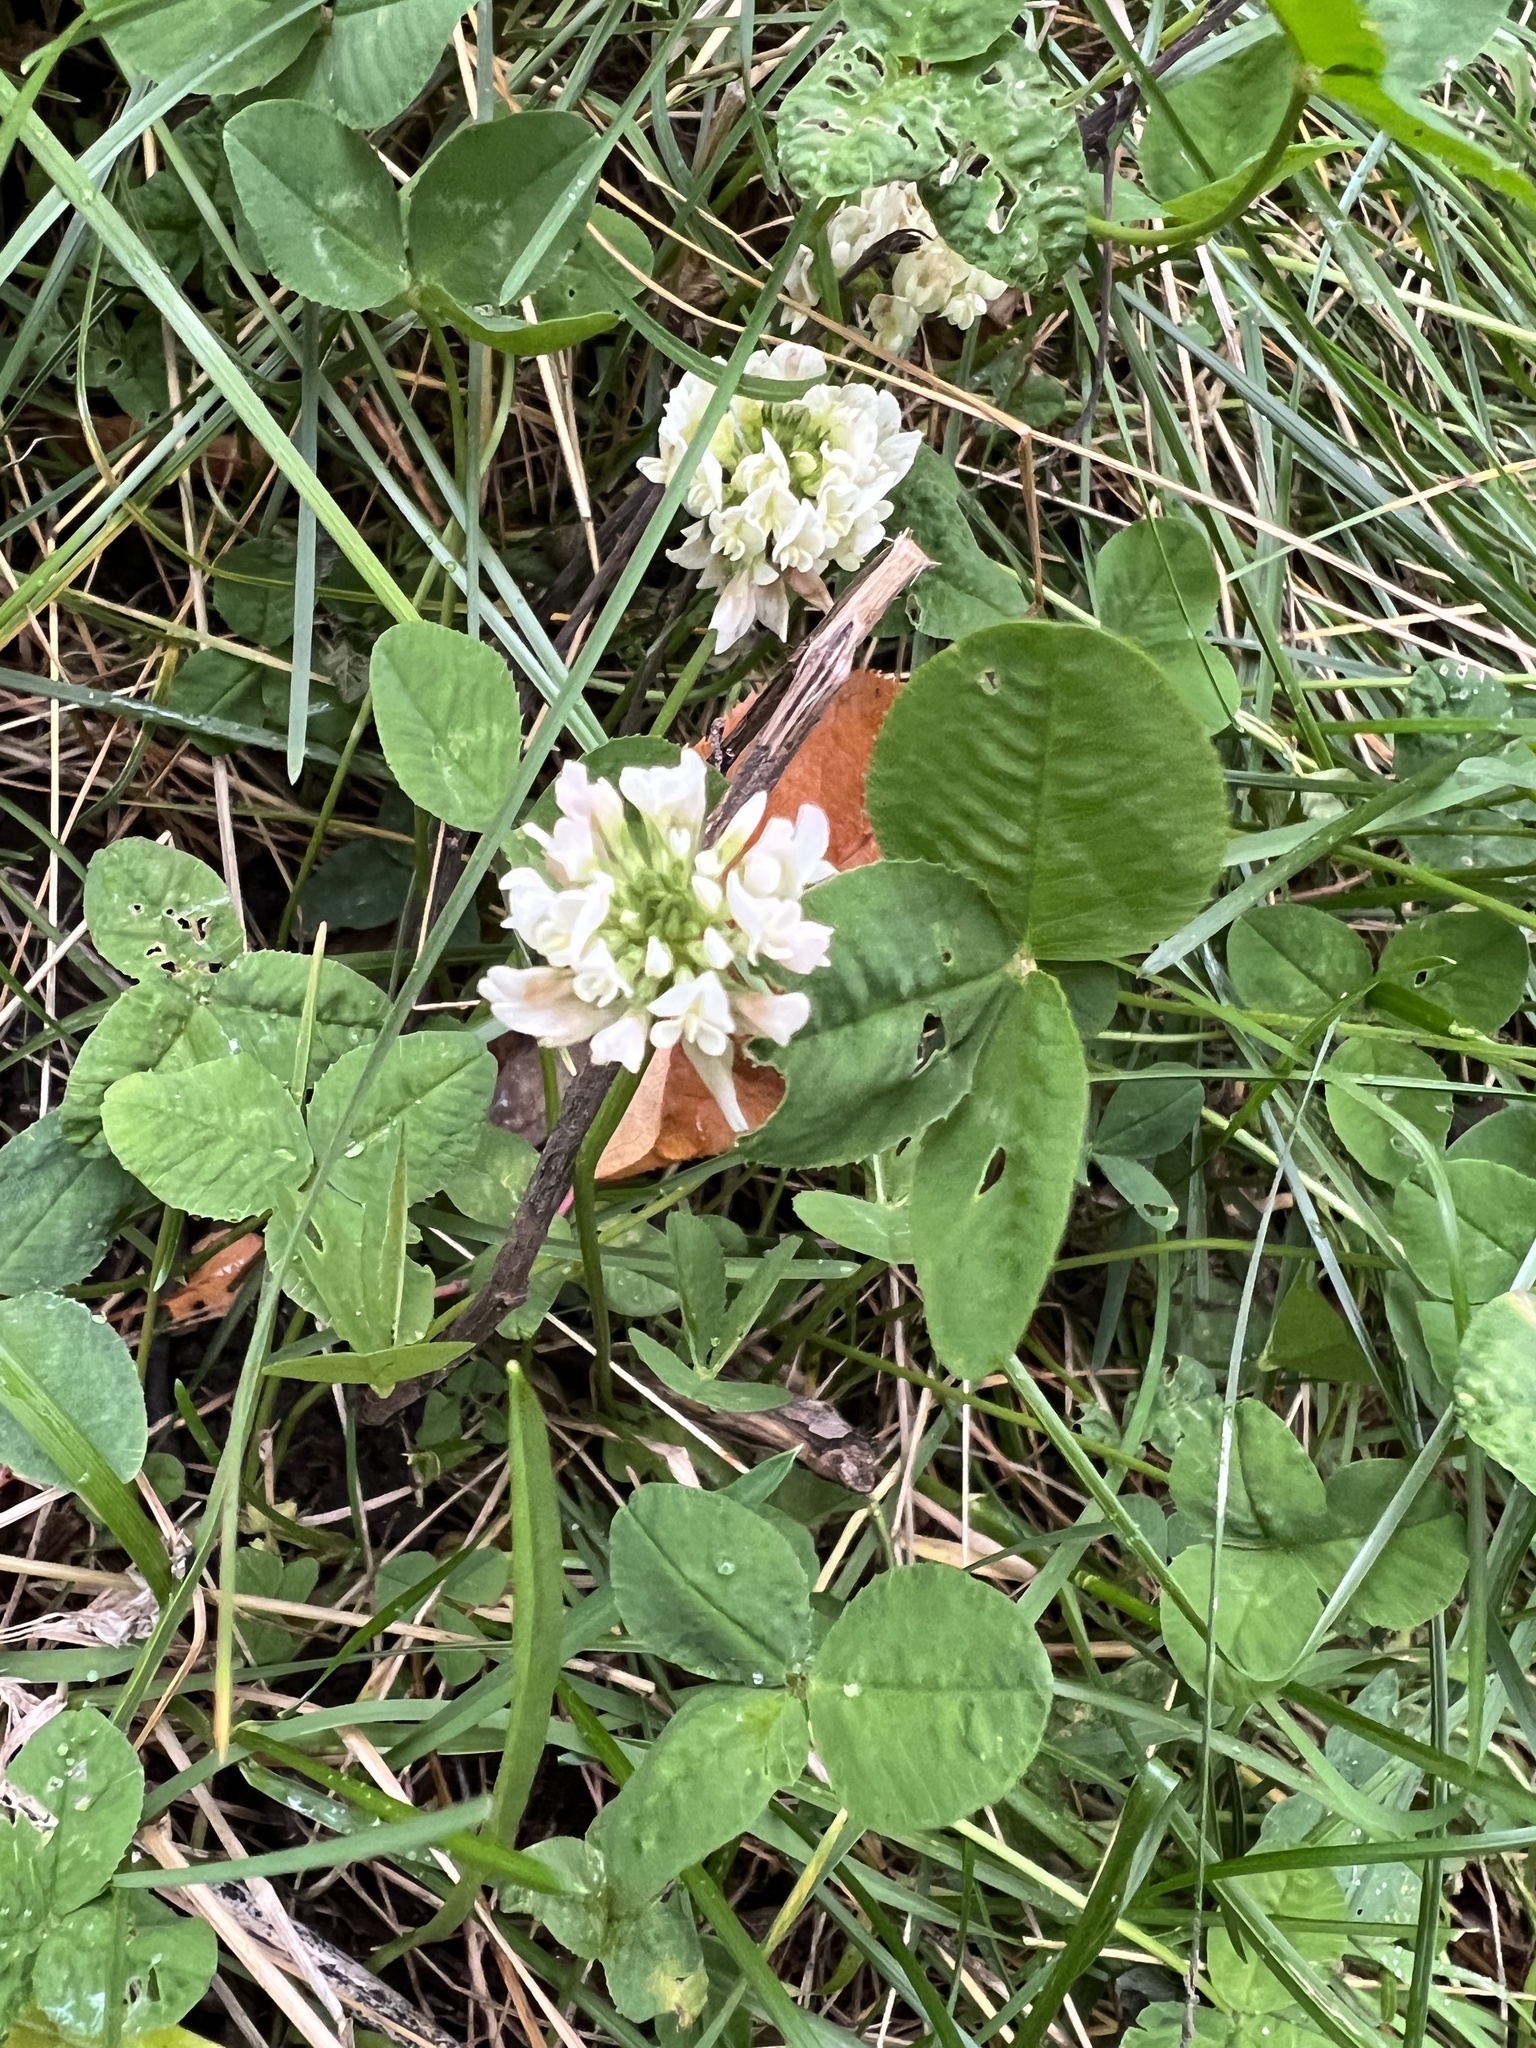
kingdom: Plantae
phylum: Tracheophyta
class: Magnoliopsida
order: Fabales
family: Fabaceae
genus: Trifolium
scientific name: Trifolium repens
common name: White clover
